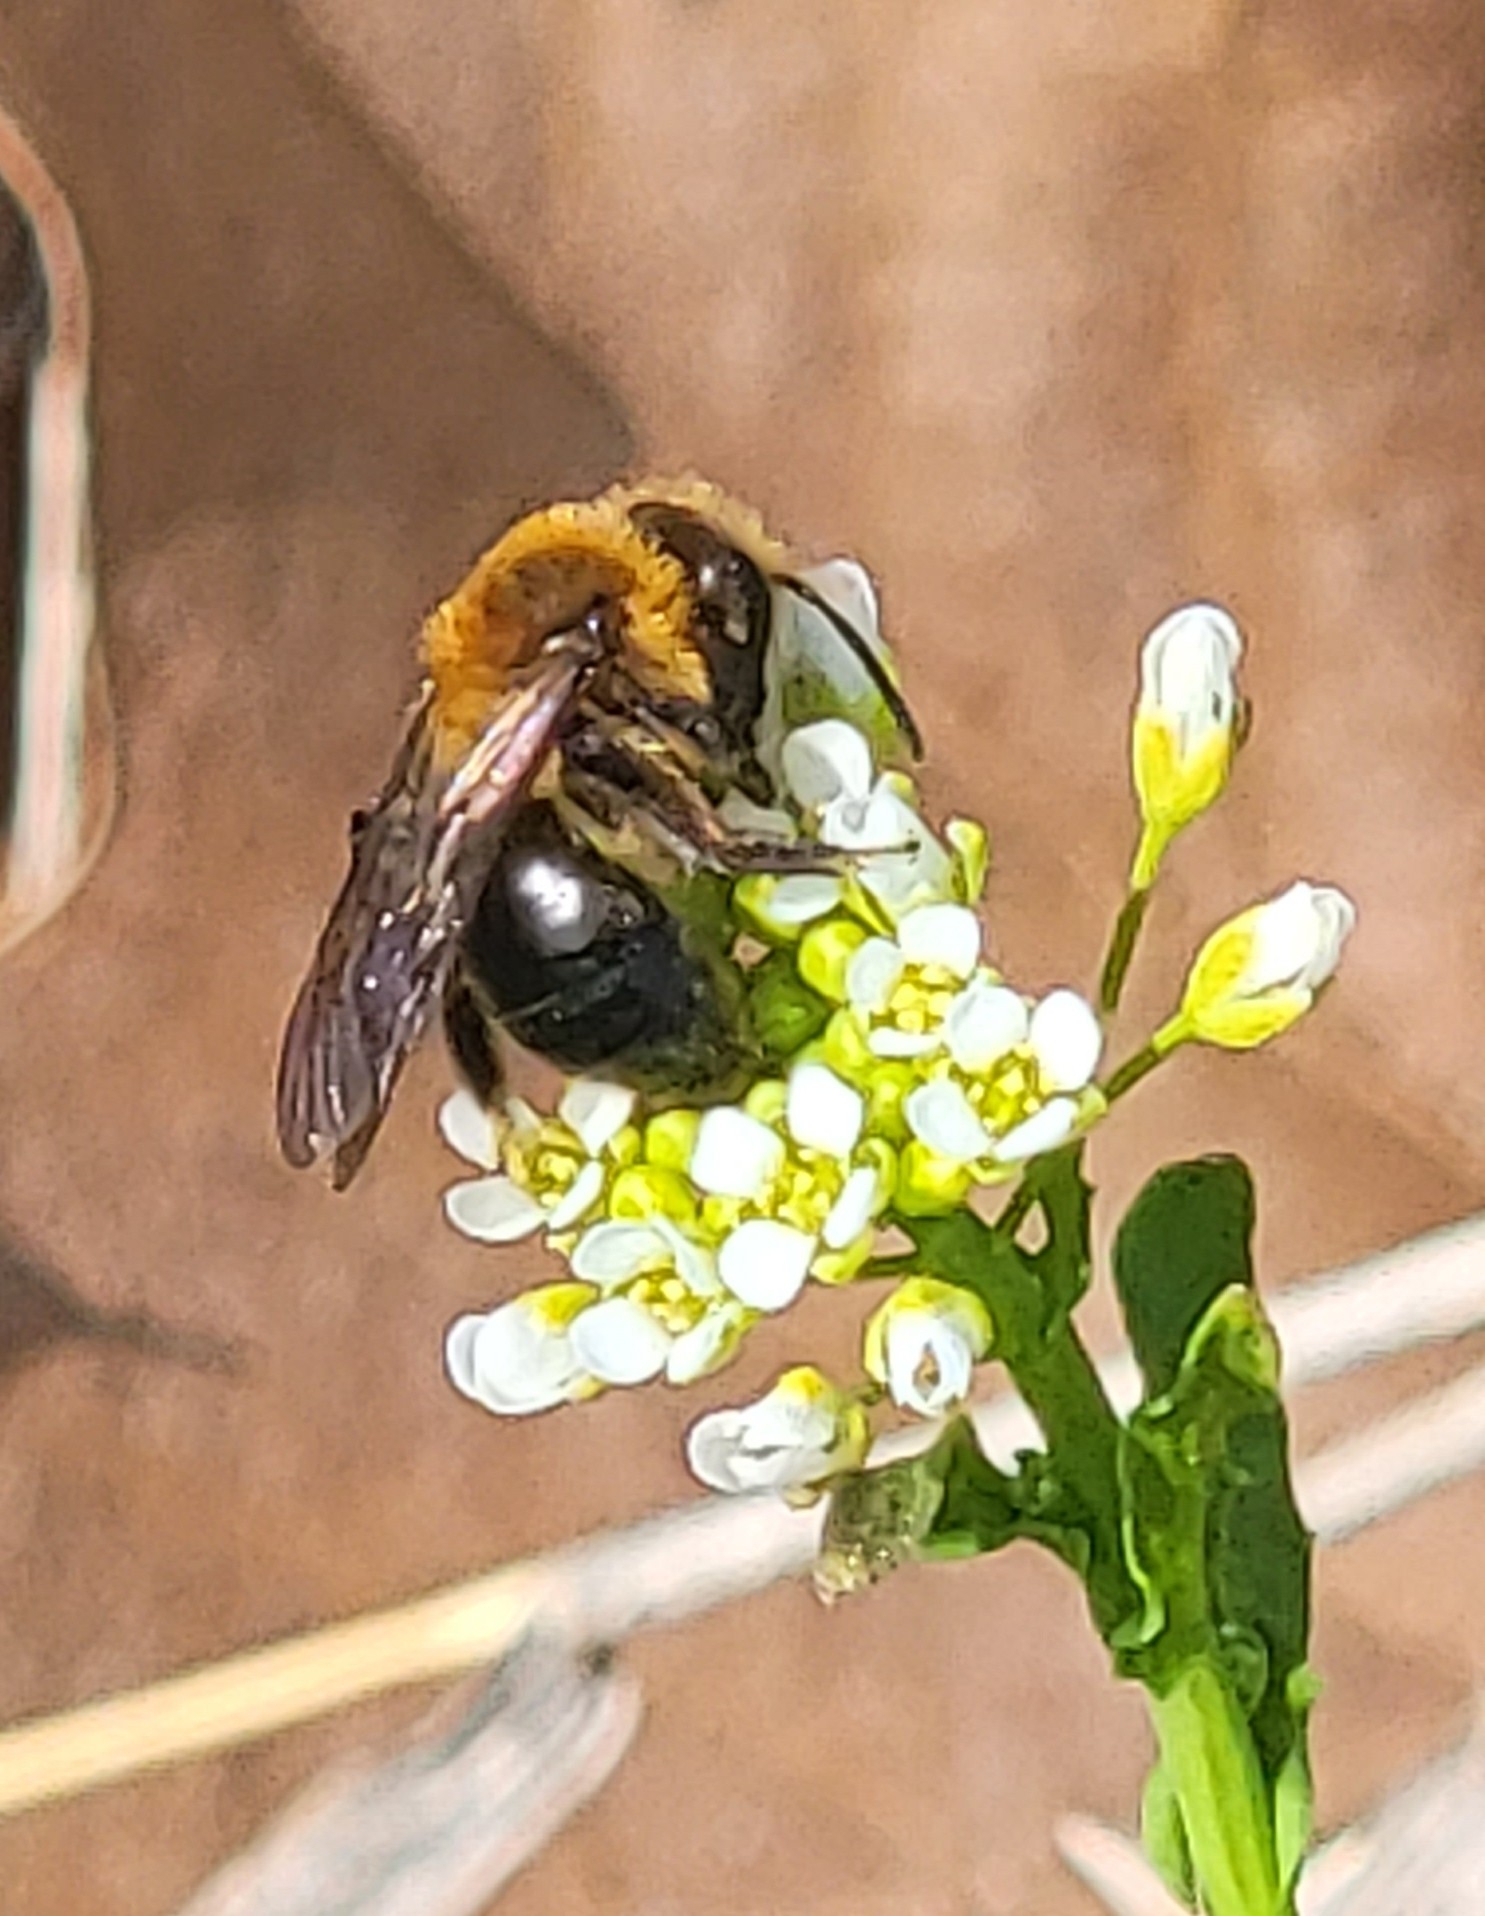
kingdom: Animalia
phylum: Arthropoda
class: Insecta
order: Hymenoptera
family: Andrenidae
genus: Andrena
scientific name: Andrena dunningi
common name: Dunning's miner
